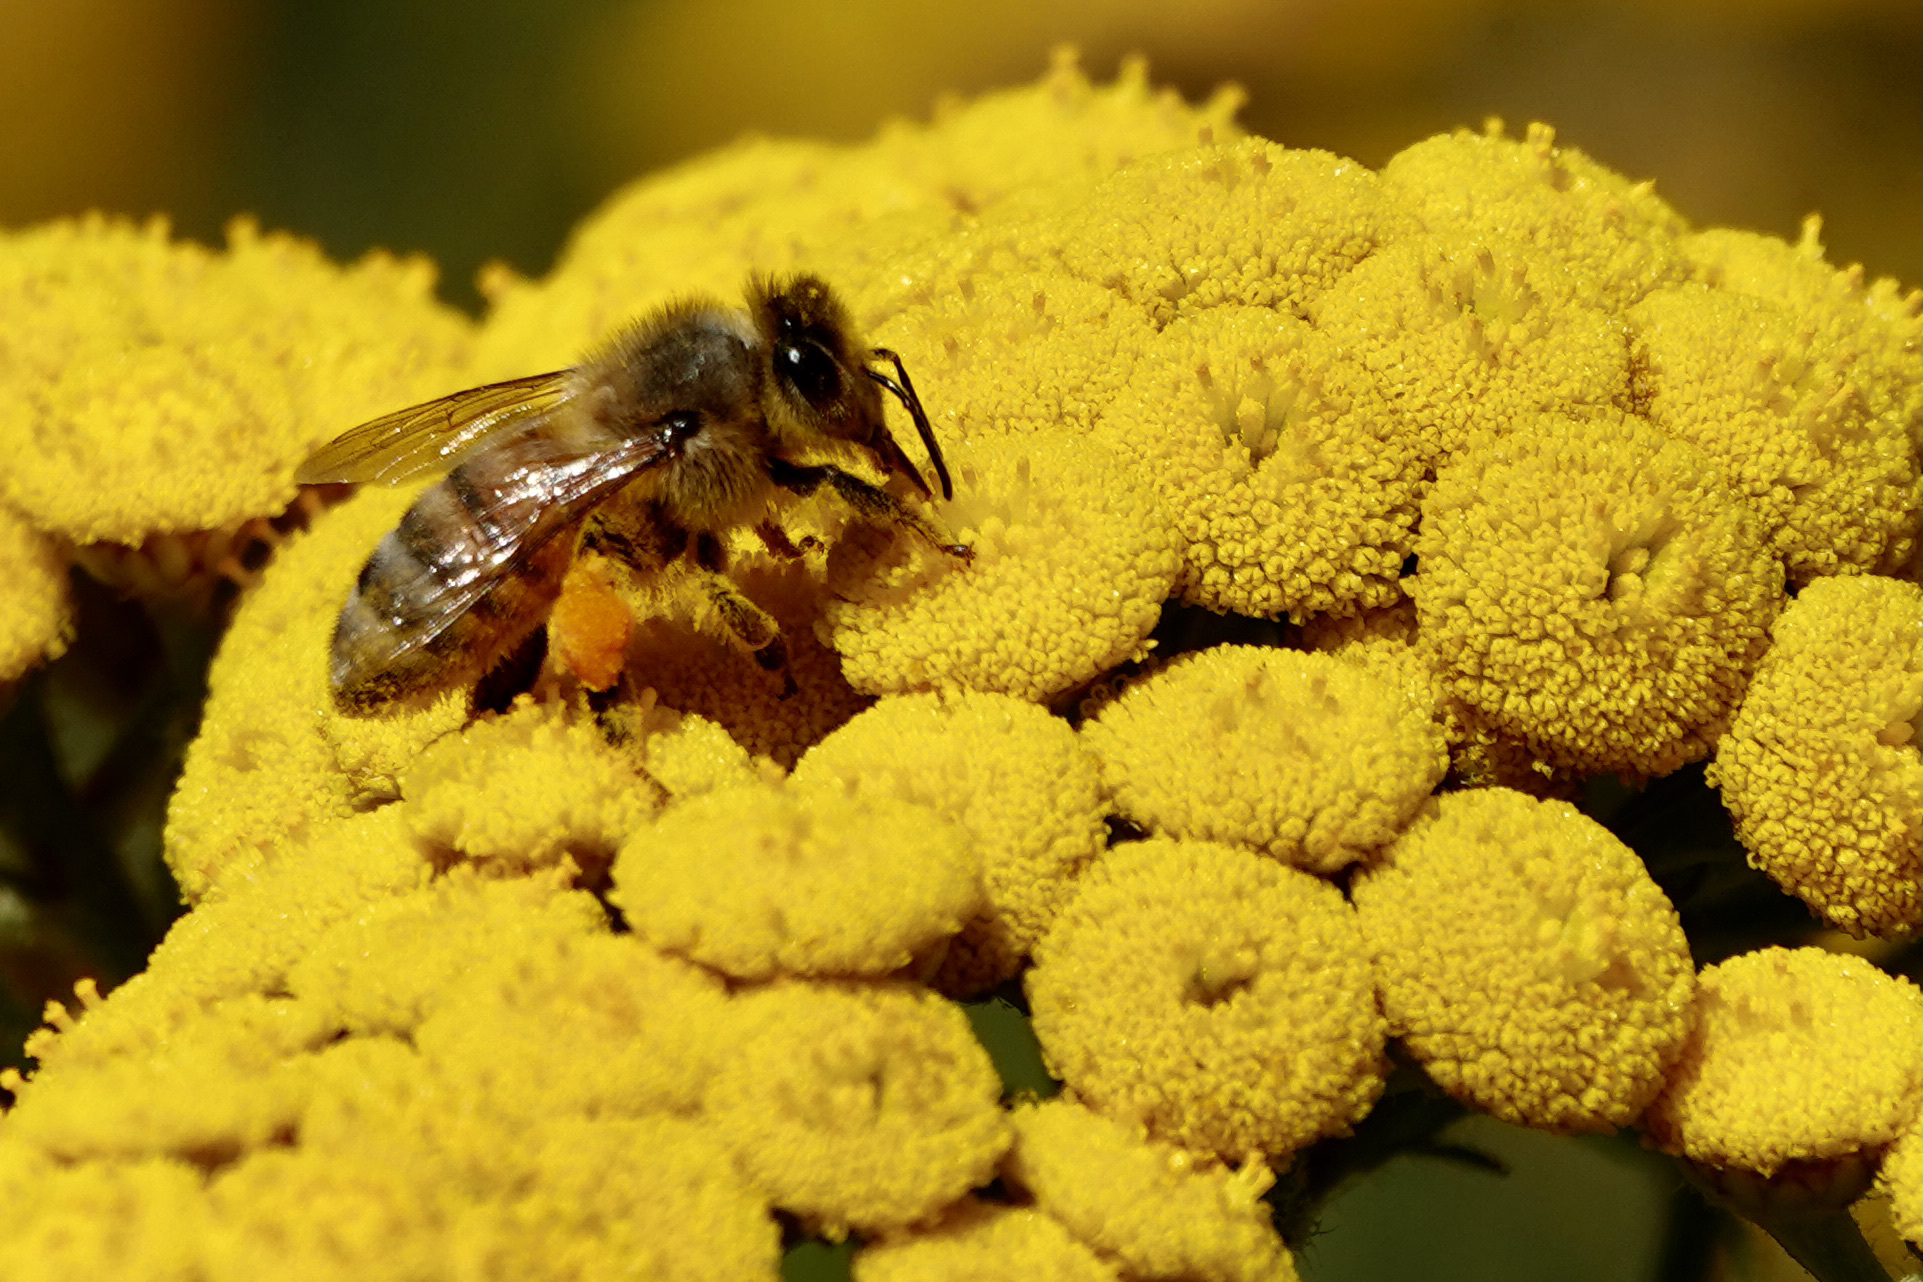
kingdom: Animalia
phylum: Arthropoda
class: Insecta
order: Hymenoptera
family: Apidae
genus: Apis
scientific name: Apis mellifera
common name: Honey bee
